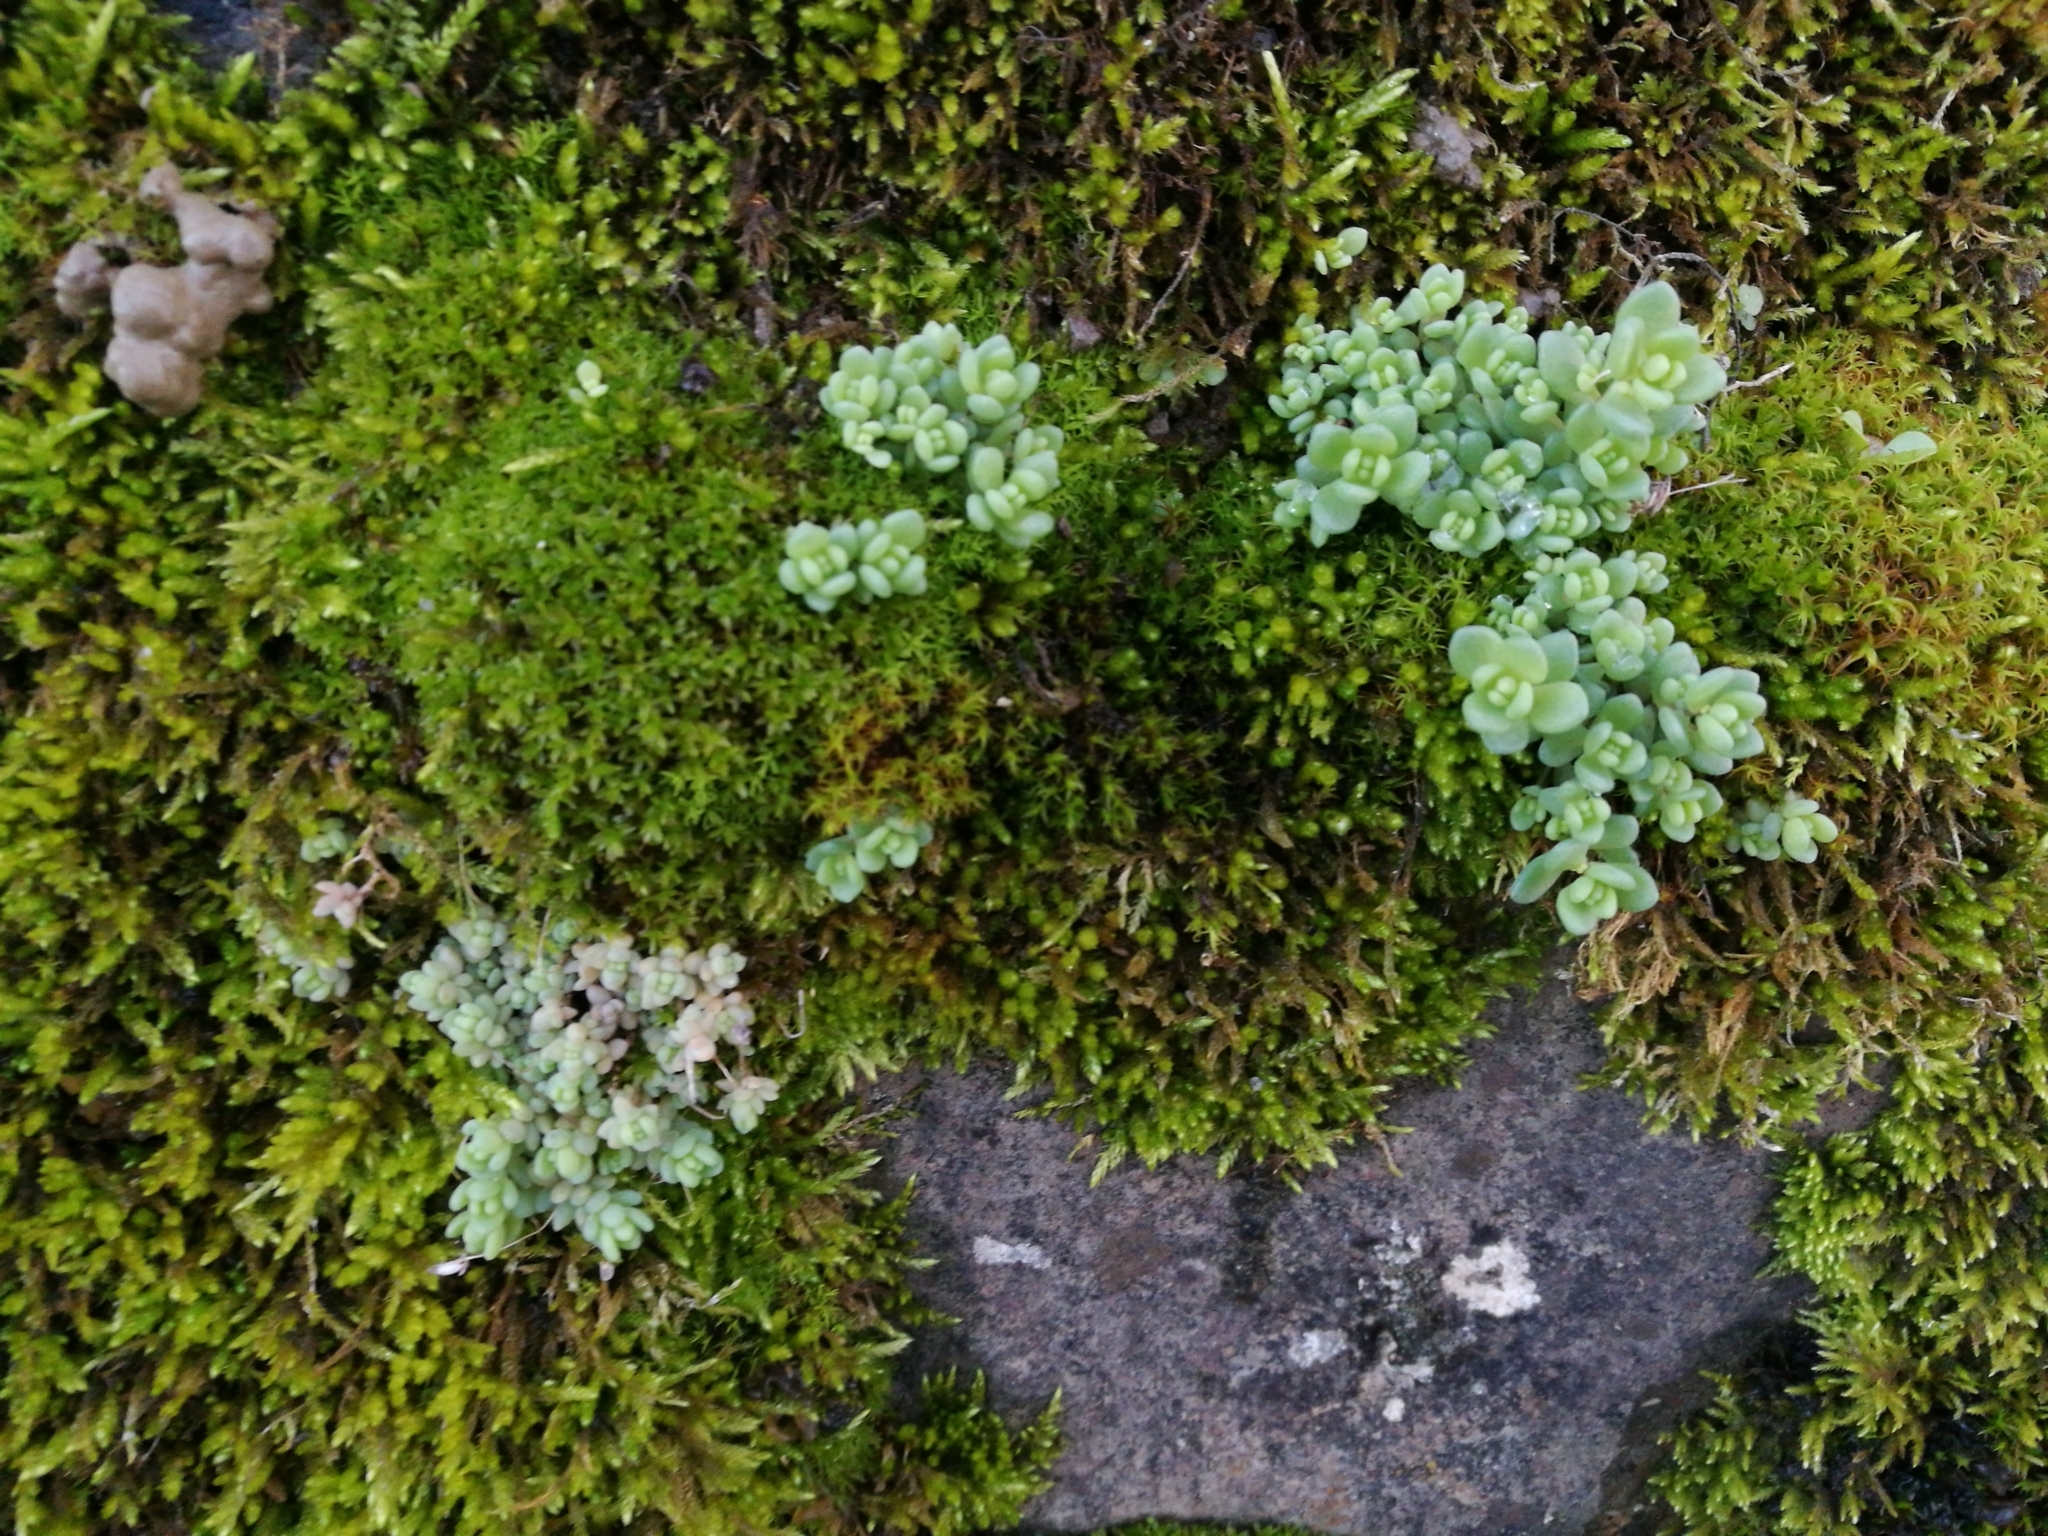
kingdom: Plantae
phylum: Tracheophyta
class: Magnoliopsida
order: Saxifragales
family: Crassulaceae
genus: Sedum
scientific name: Sedum dasyphyllum
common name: Thick-leaf stonecrop
